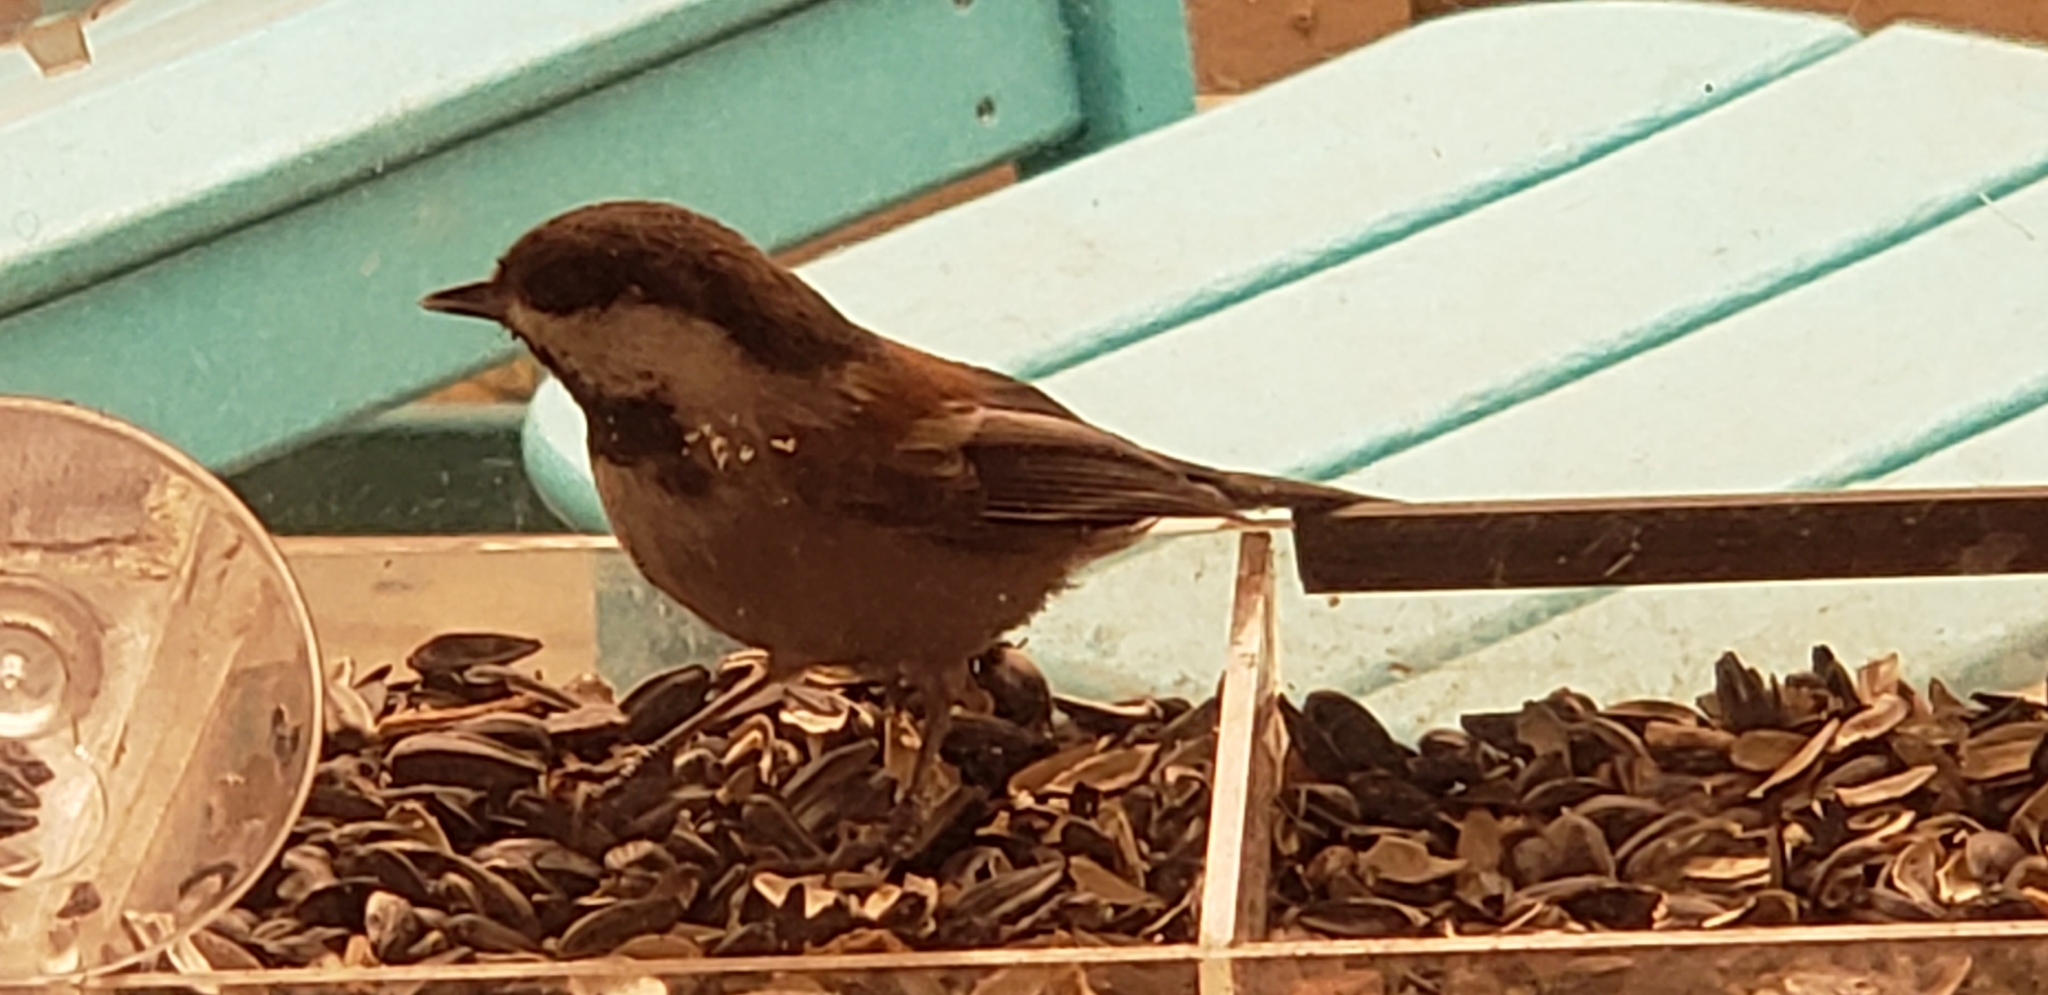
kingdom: Animalia
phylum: Chordata
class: Aves
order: Passeriformes
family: Paridae
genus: Poecile
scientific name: Poecile rufescens
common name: Chestnut-backed chickadee
